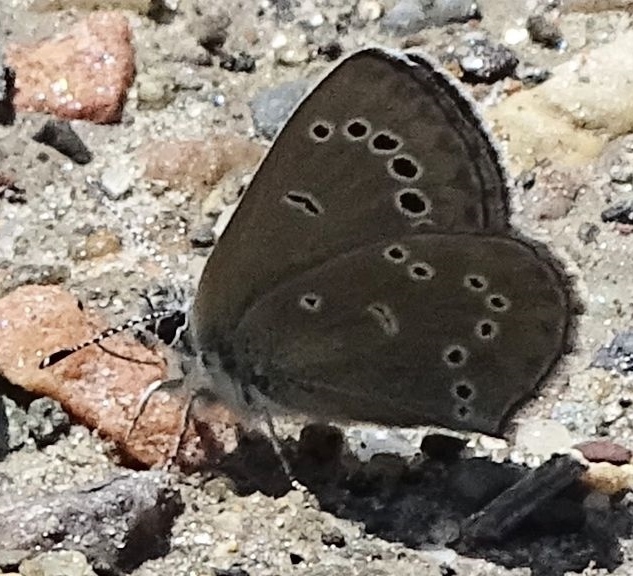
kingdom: Animalia
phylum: Arthropoda
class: Insecta
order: Lepidoptera
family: Lycaenidae
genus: Glaucopsyche
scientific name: Glaucopsyche lygdamus
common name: Silvery blue
